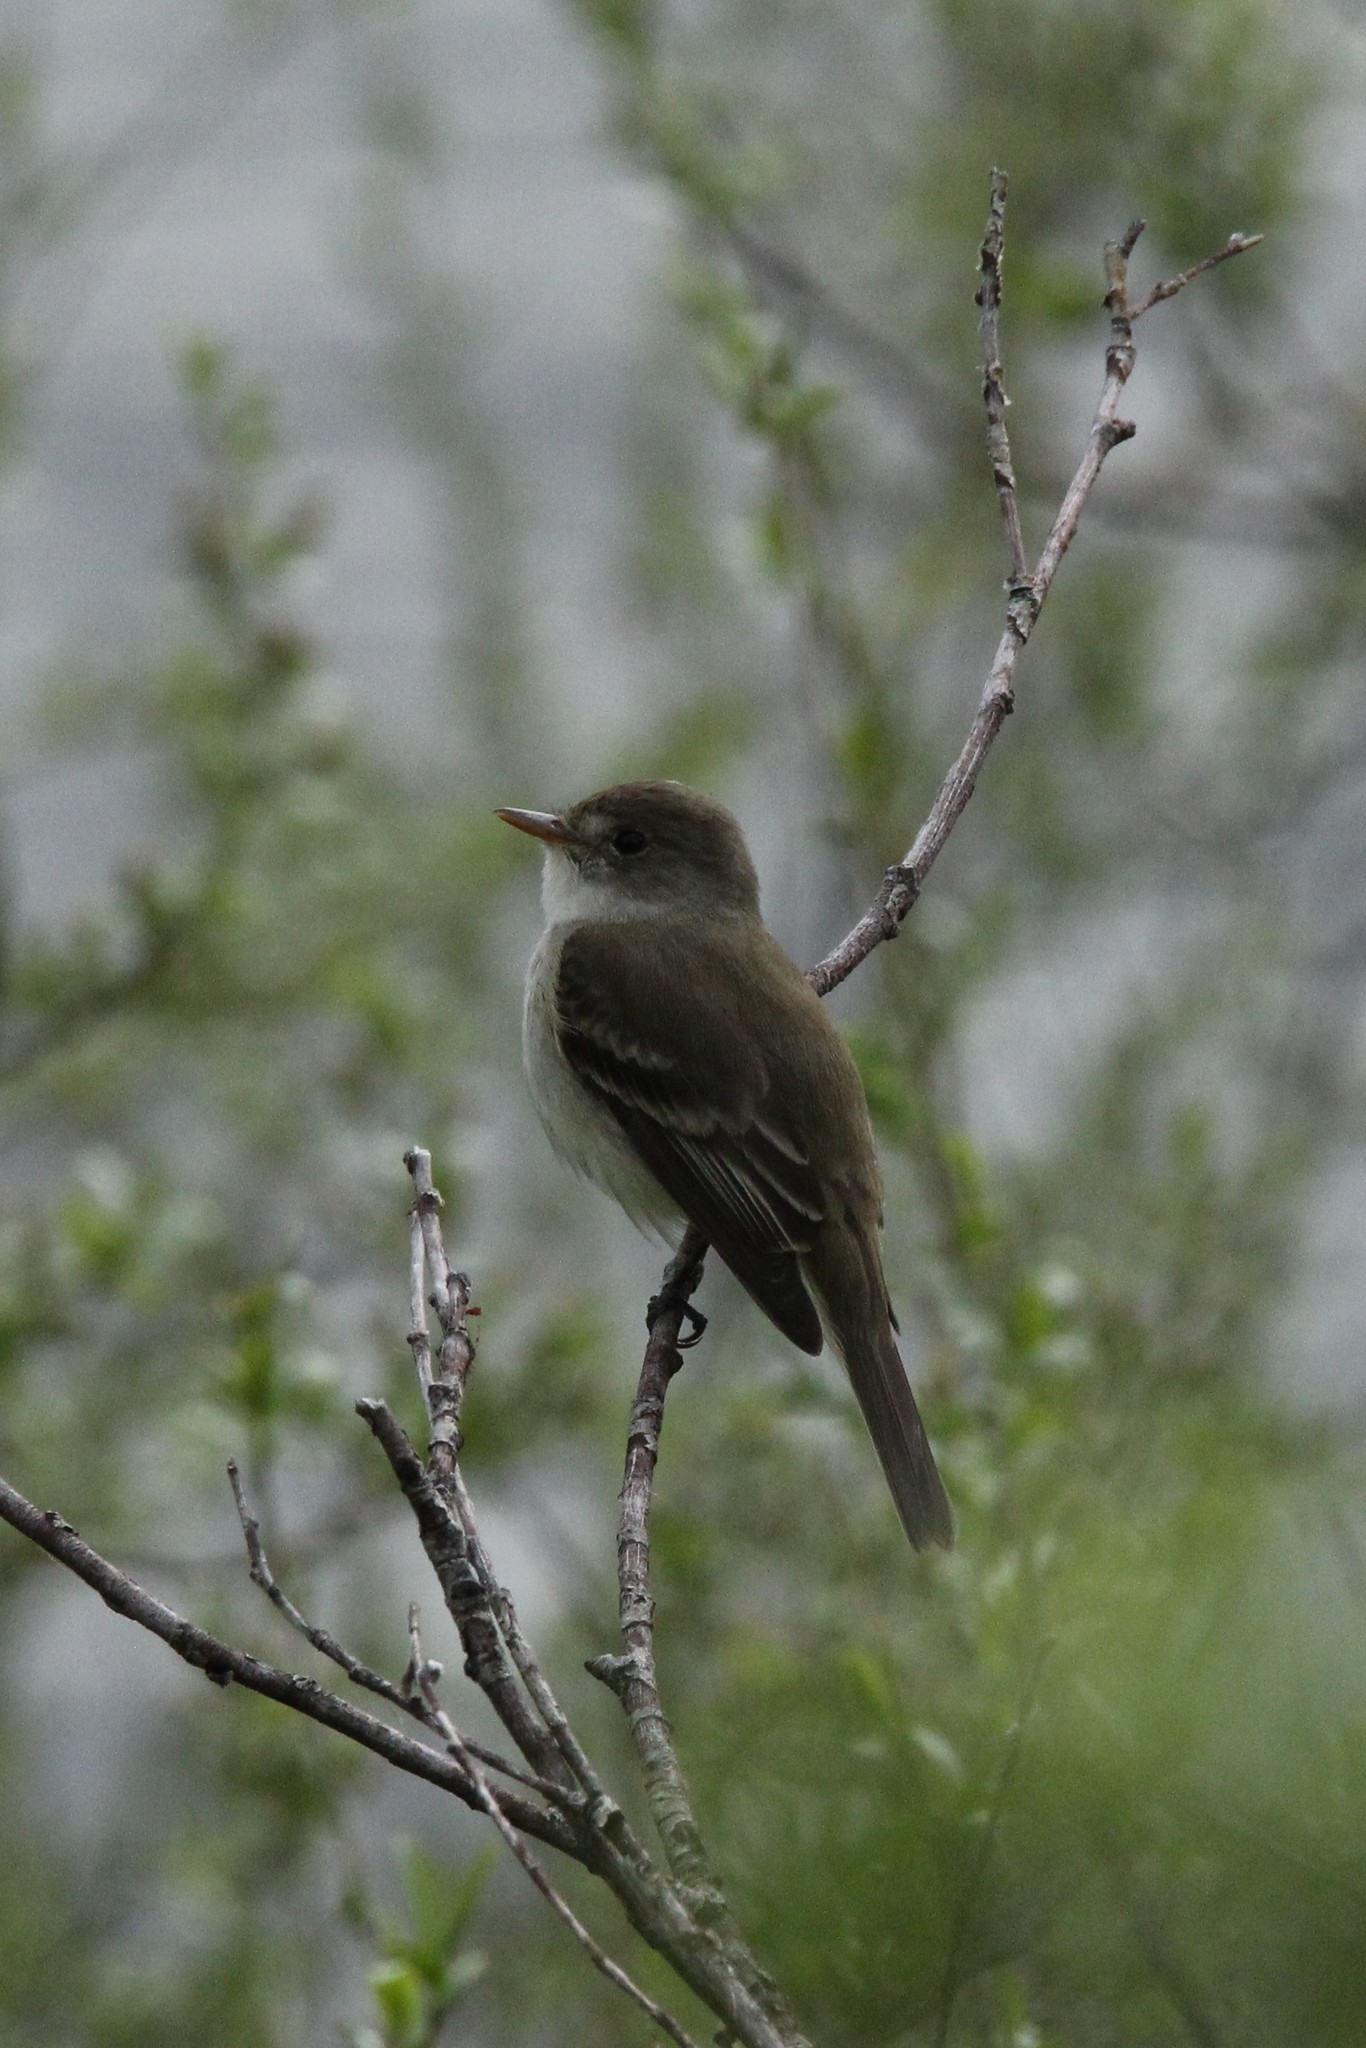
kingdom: Animalia
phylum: Chordata
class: Aves
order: Passeriformes
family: Tyrannidae
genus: Empidonax
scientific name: Empidonax traillii
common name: Willow flycatcher
